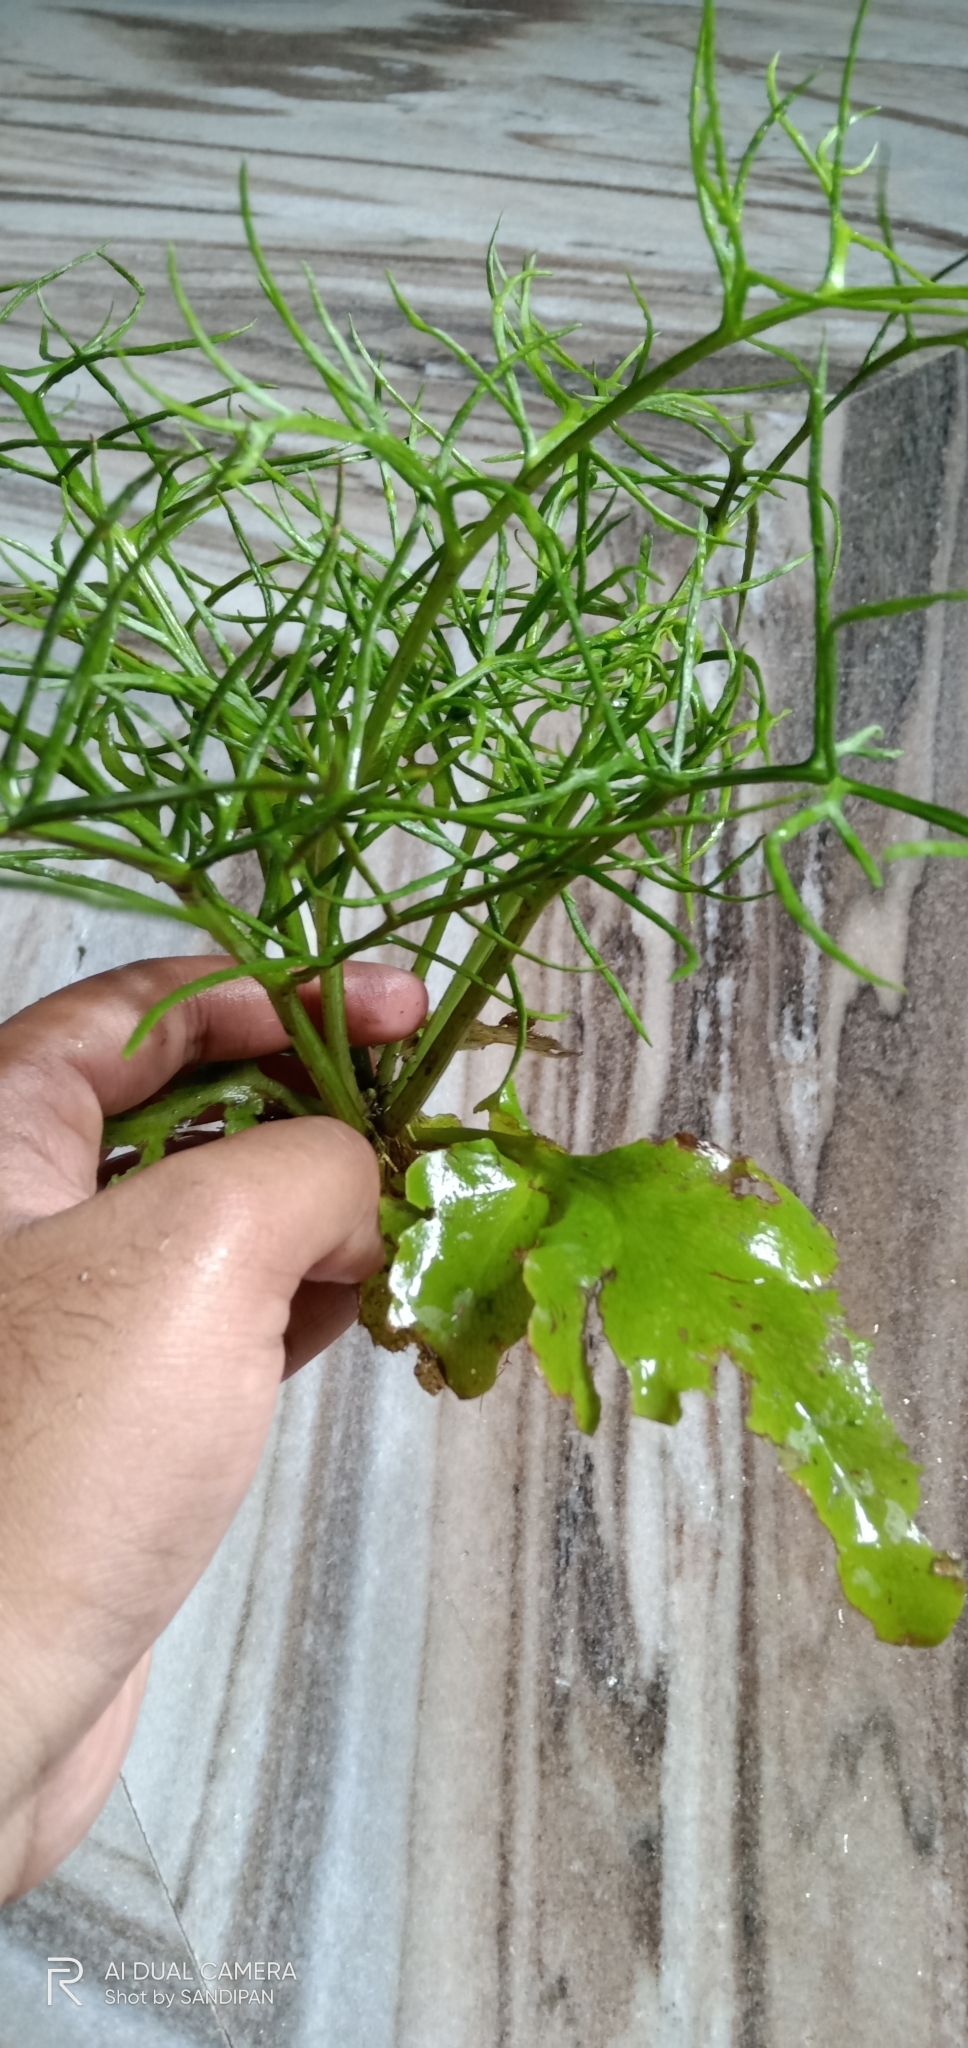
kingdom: Plantae
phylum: Tracheophyta
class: Polypodiopsida
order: Polypodiales
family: Pteridaceae
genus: Ceratopteris
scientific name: Ceratopteris thalictroides
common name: Water fern
